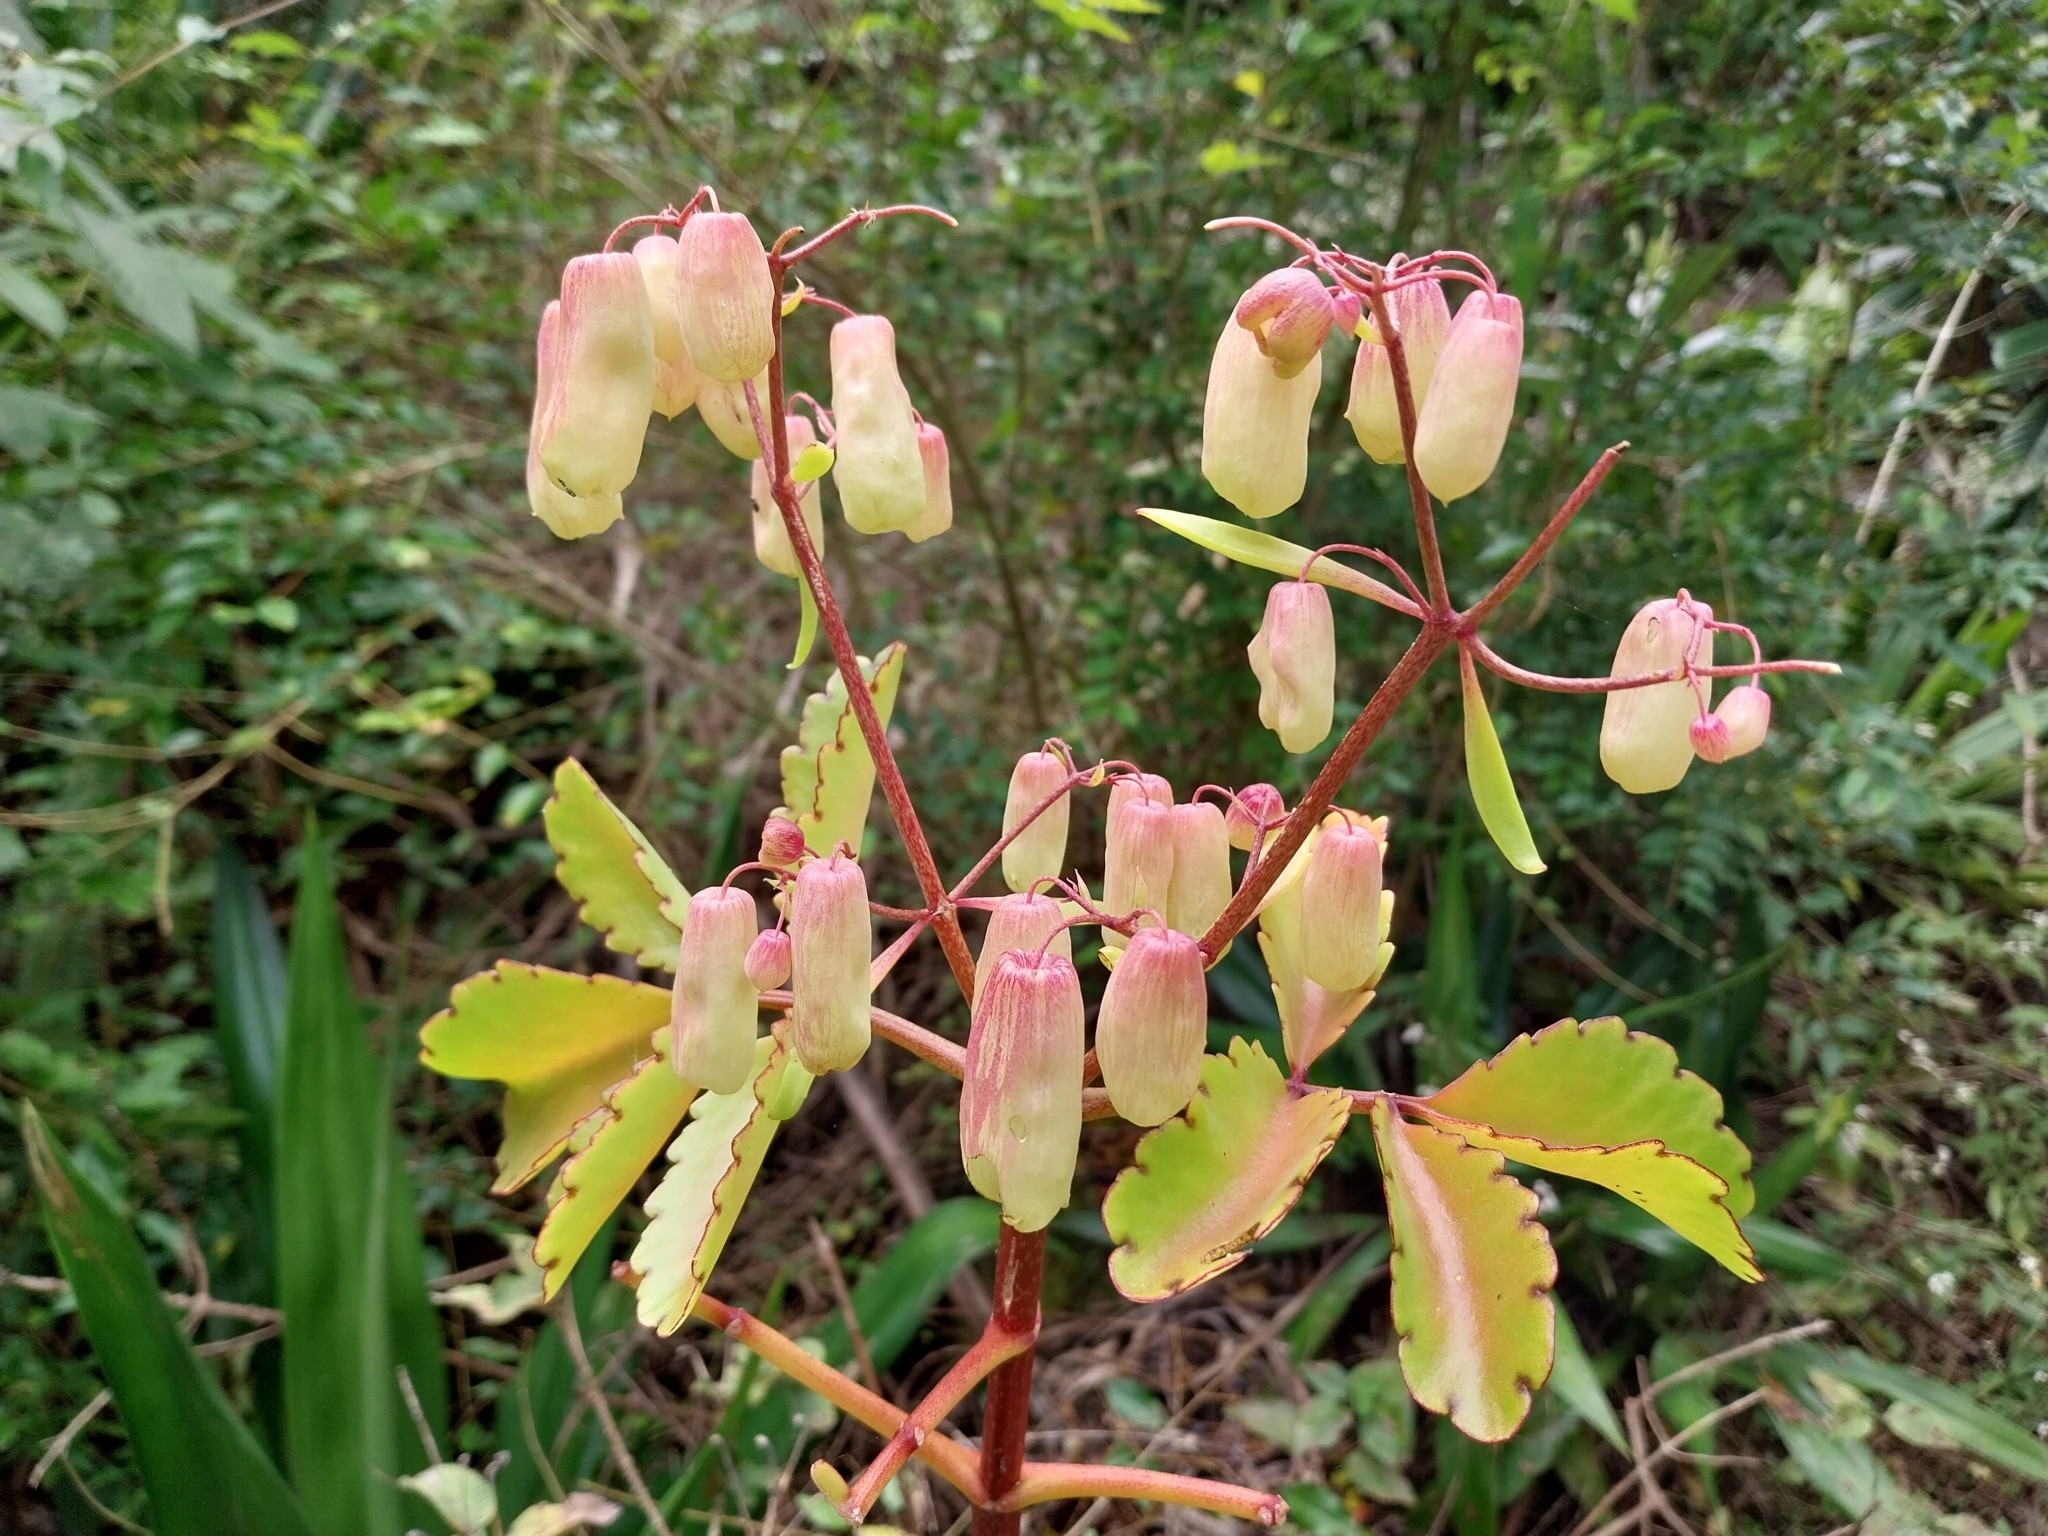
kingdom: Plantae
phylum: Tracheophyta
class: Magnoliopsida
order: Saxifragales
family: Crassulaceae
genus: Kalanchoe
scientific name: Kalanchoe pinnata
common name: Cathedral bells
